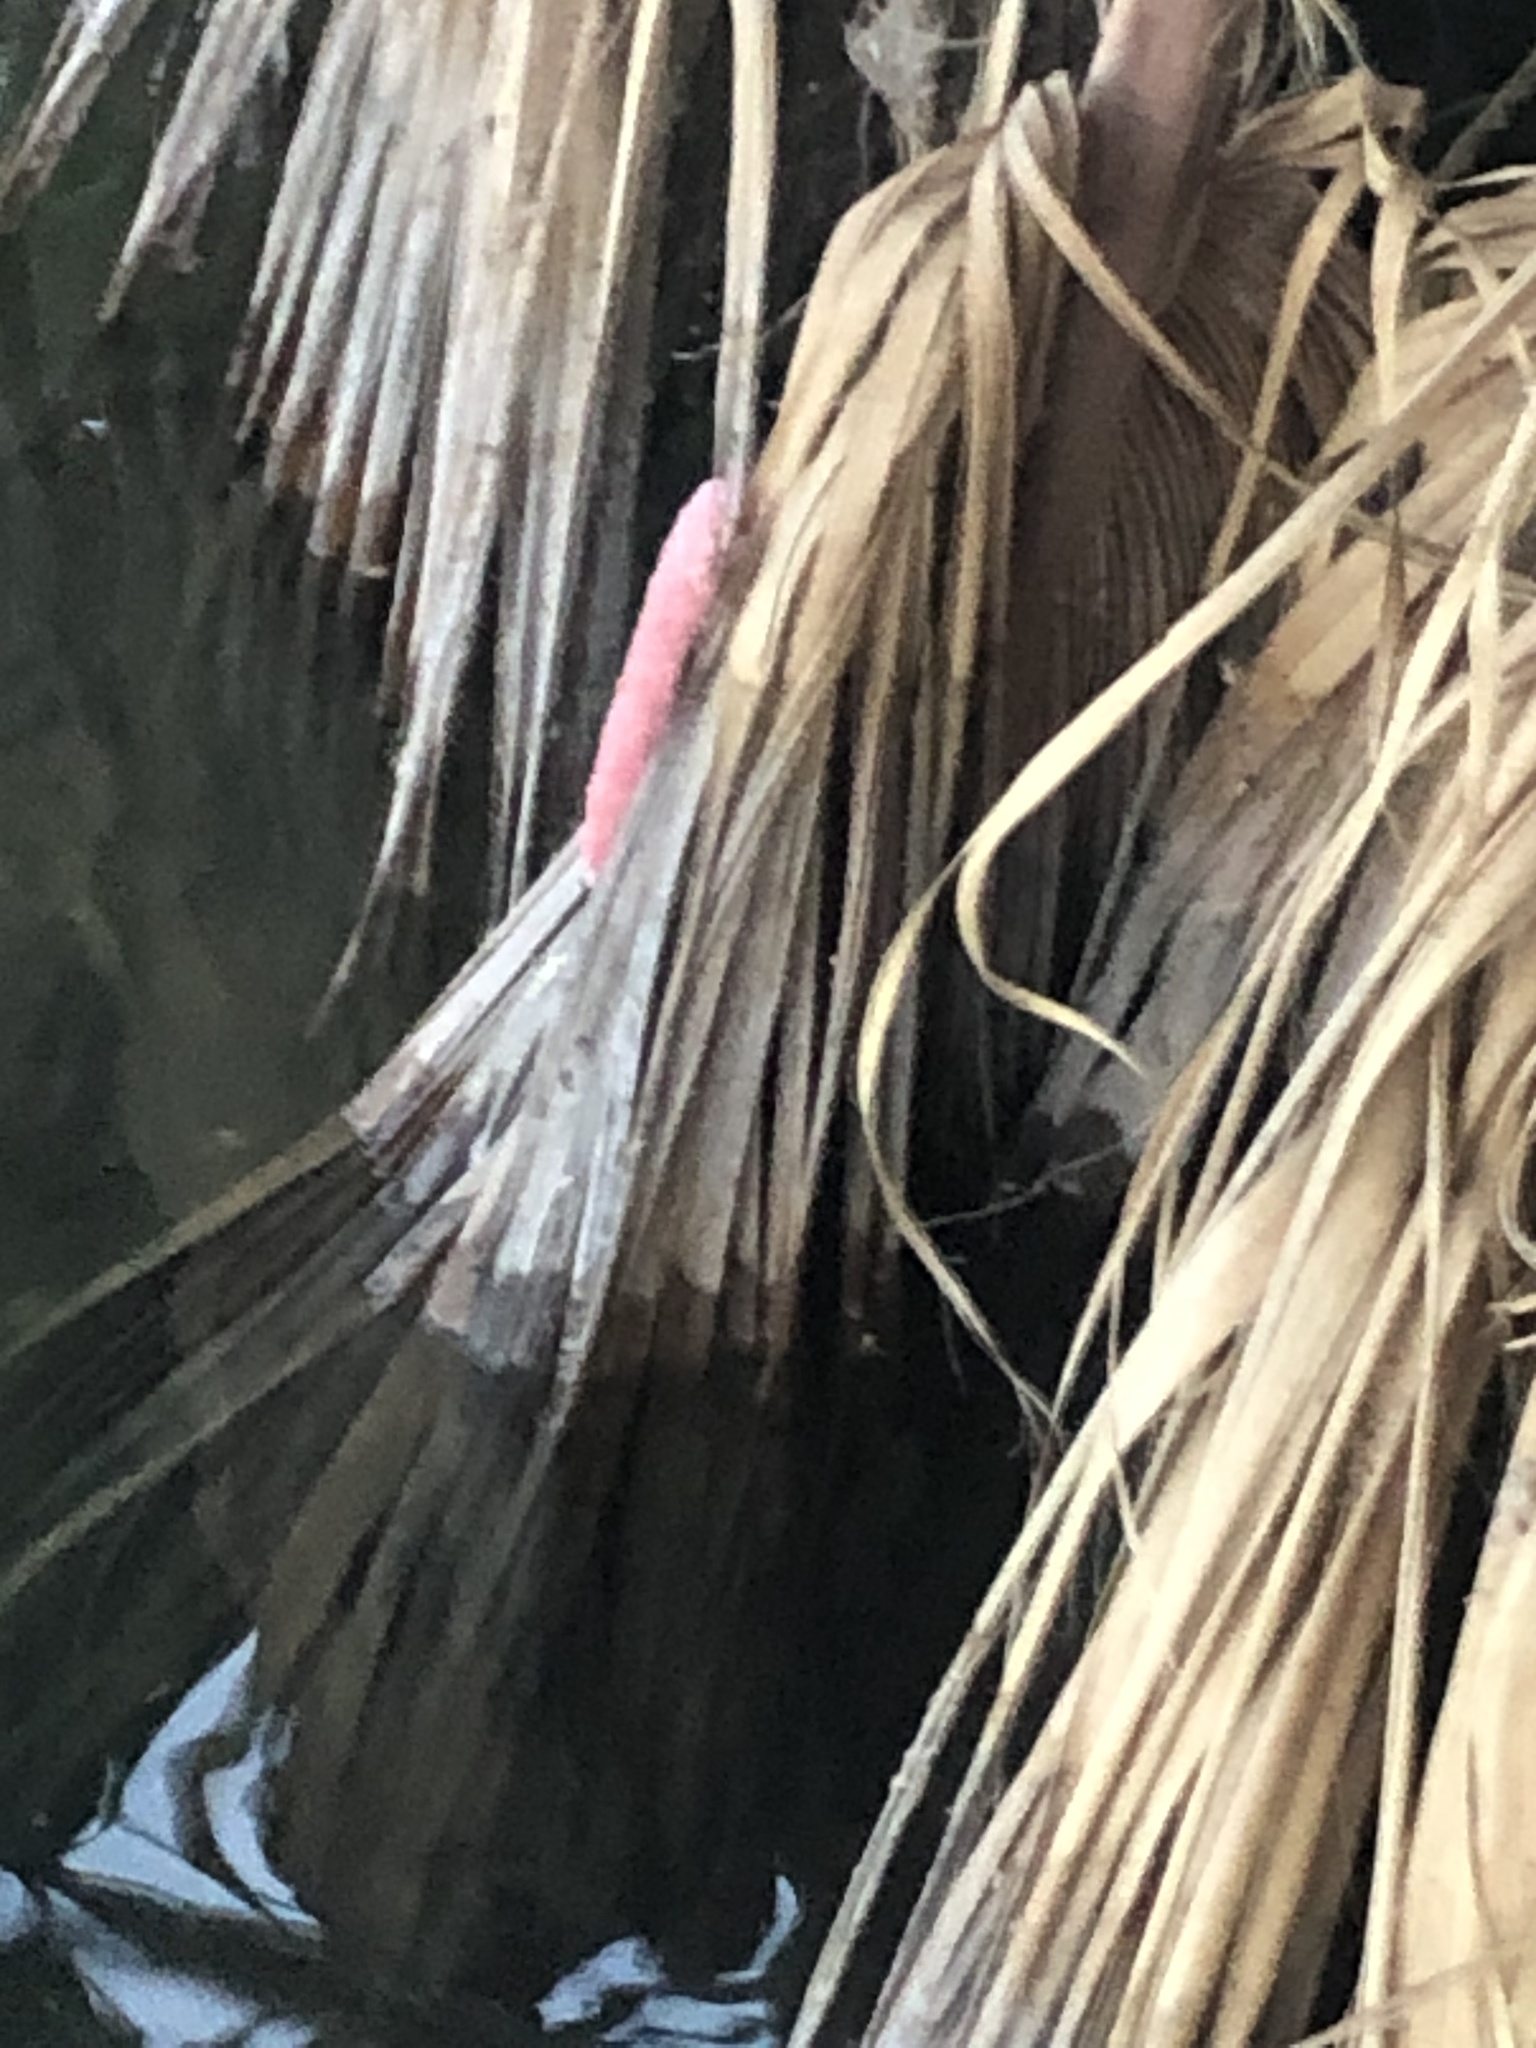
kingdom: Animalia
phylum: Mollusca
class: Gastropoda
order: Architaenioglossa
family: Ampullariidae
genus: Pomacea
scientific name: Pomacea maculata
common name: Giant applesnail
